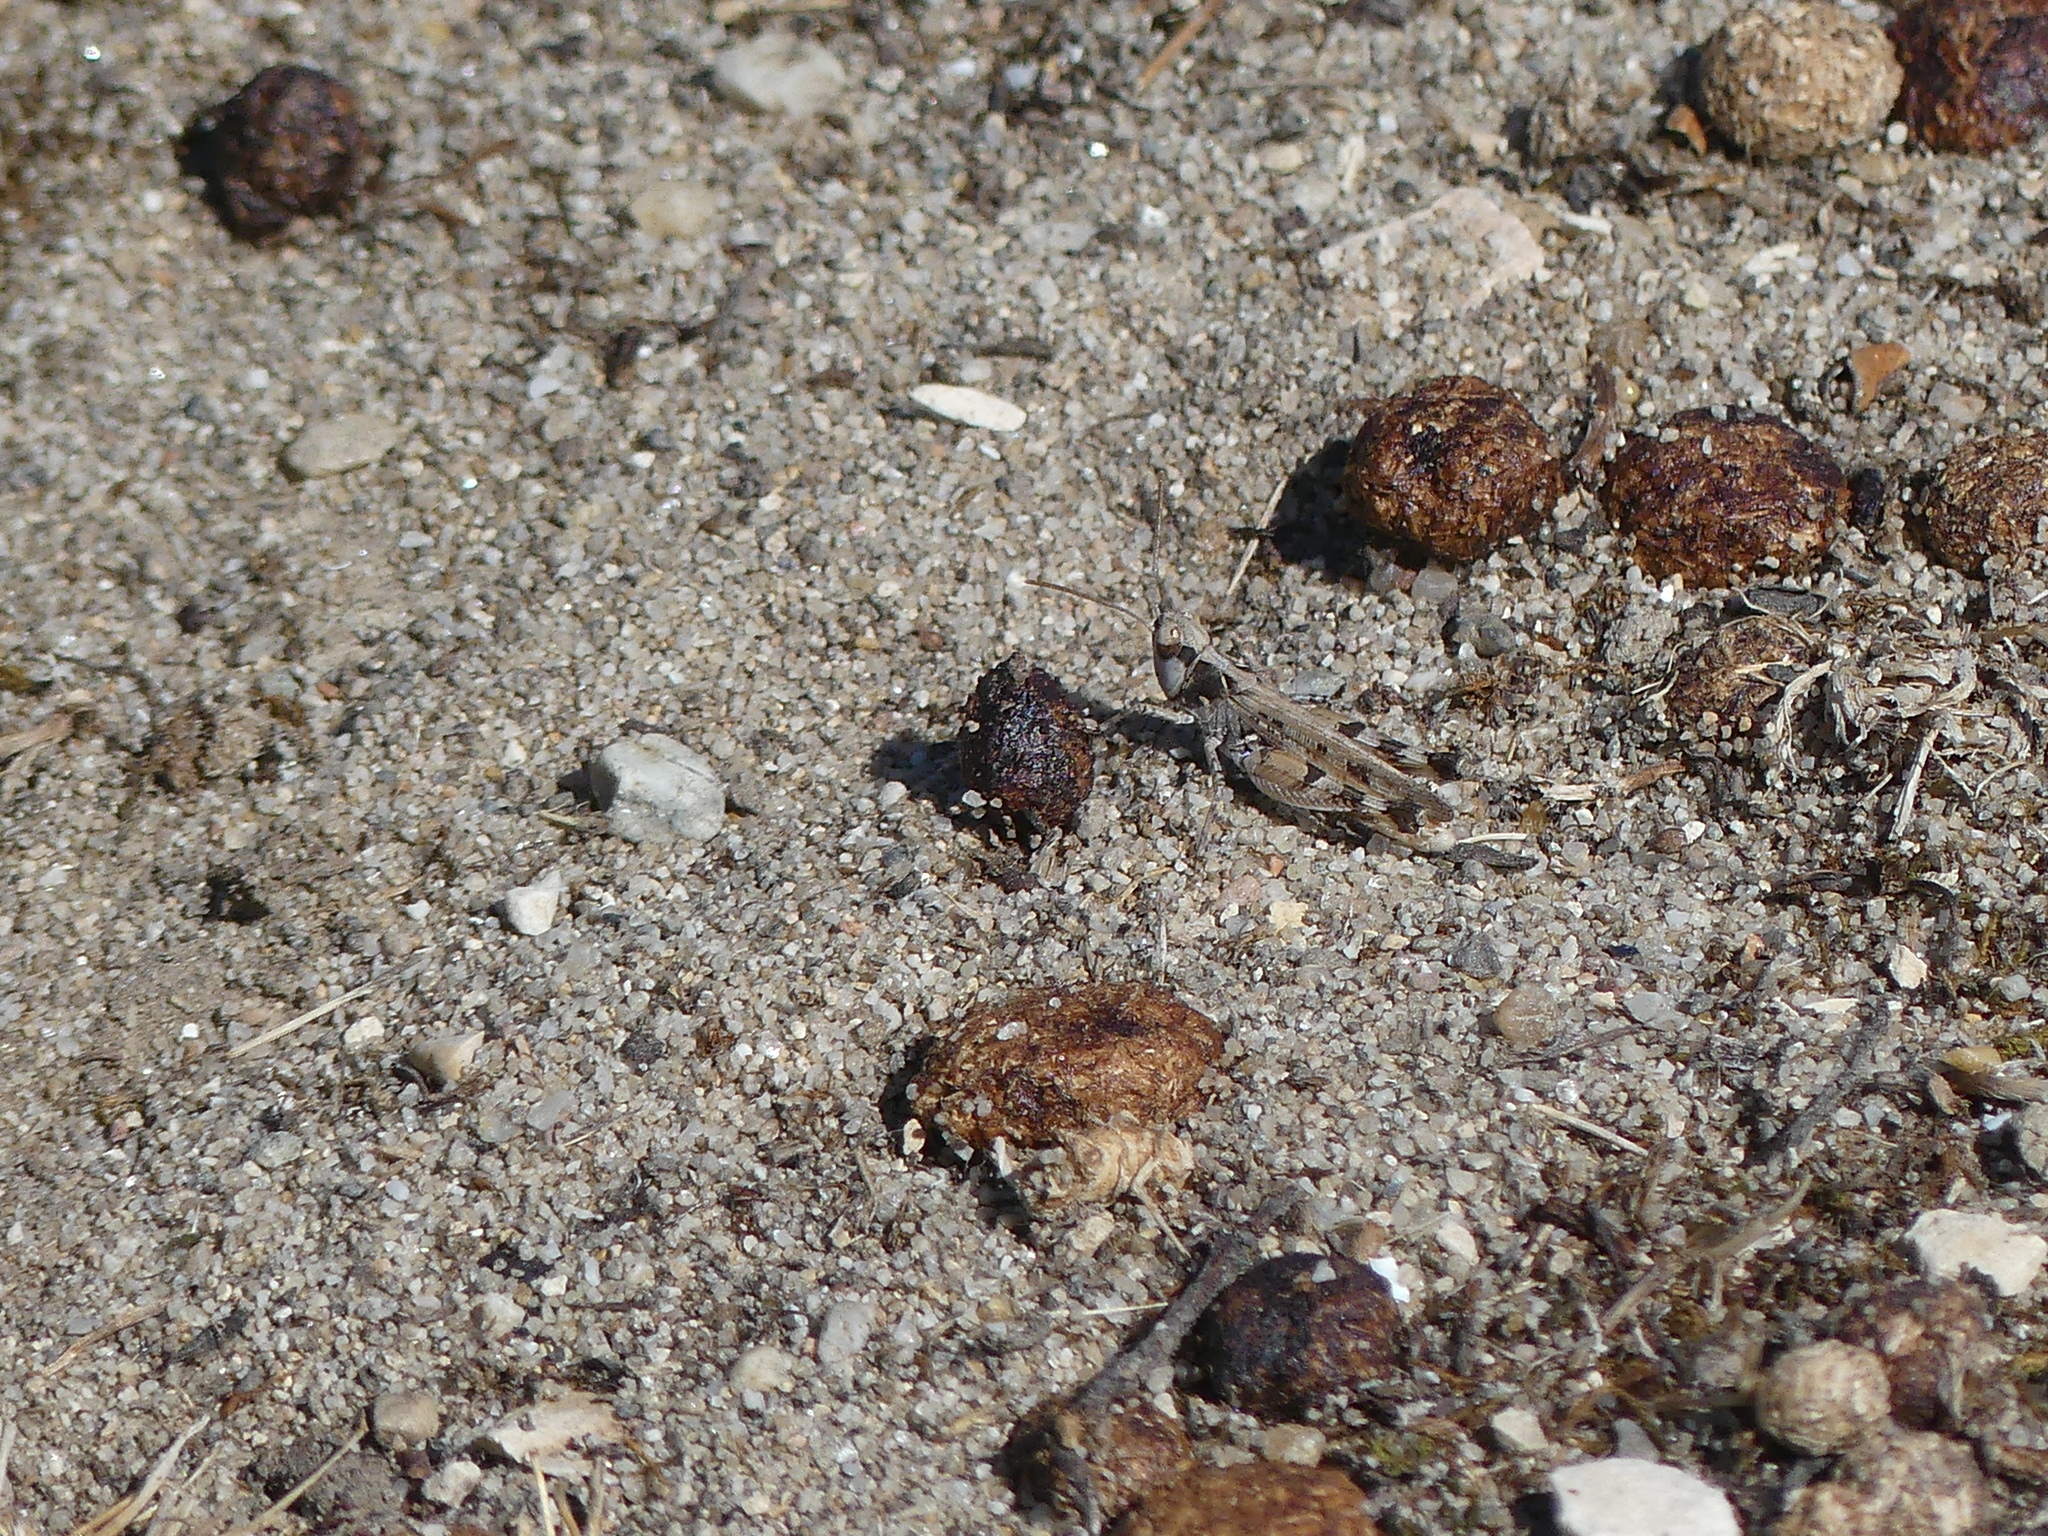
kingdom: Animalia
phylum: Arthropoda
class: Insecta
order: Orthoptera
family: Acrididae
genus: Dociostaurus
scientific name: Dociostaurus genei
